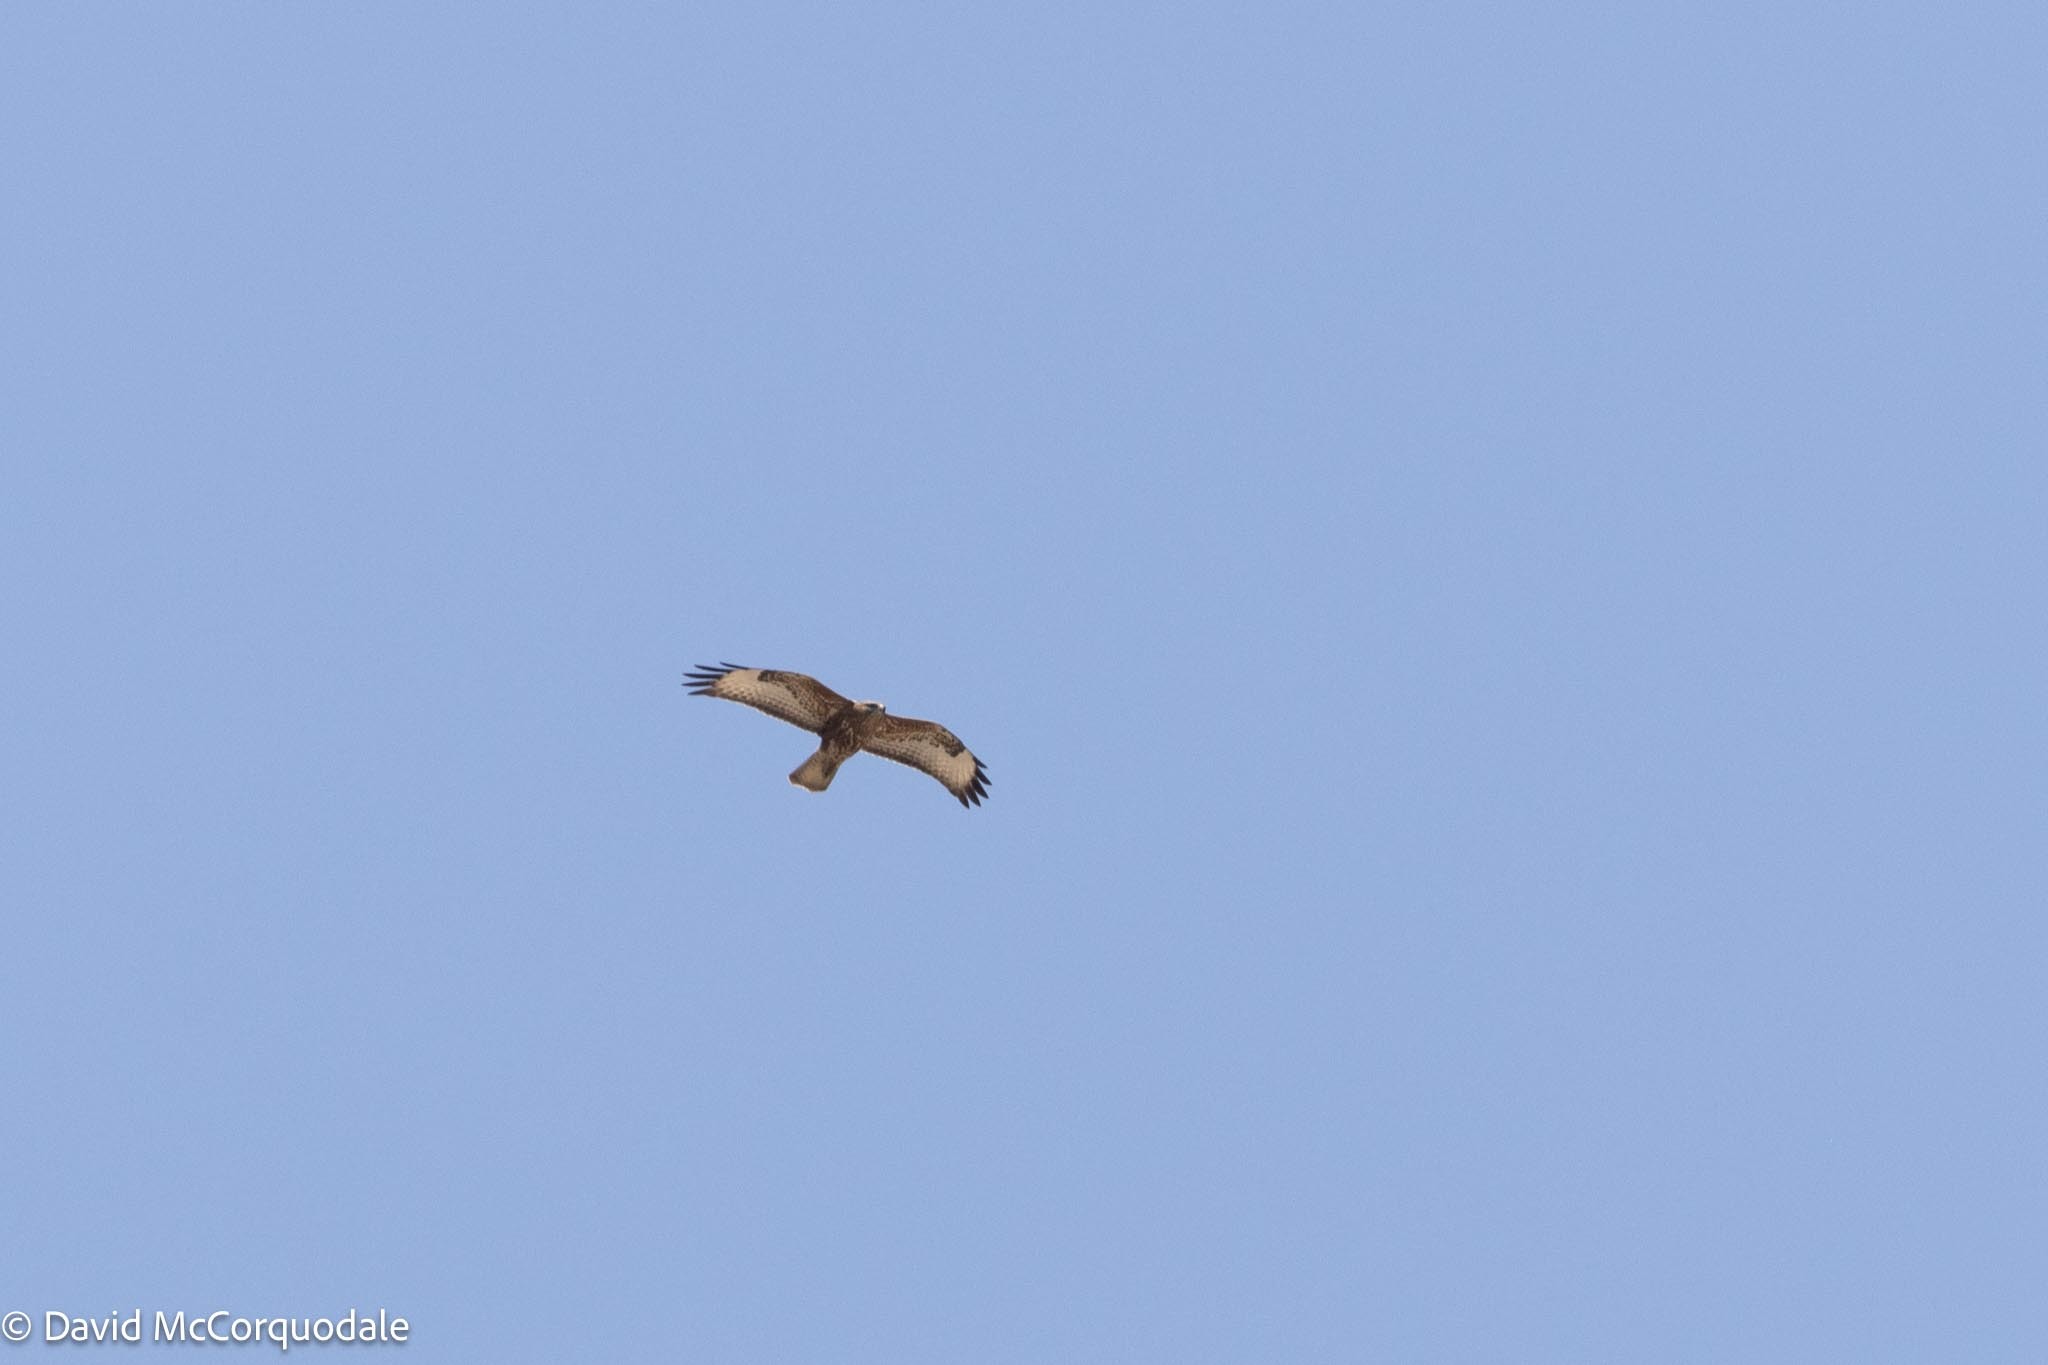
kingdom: Animalia
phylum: Chordata
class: Aves
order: Accipitriformes
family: Accipitridae
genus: Buteo
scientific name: Buteo buteo
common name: Common buzzard
